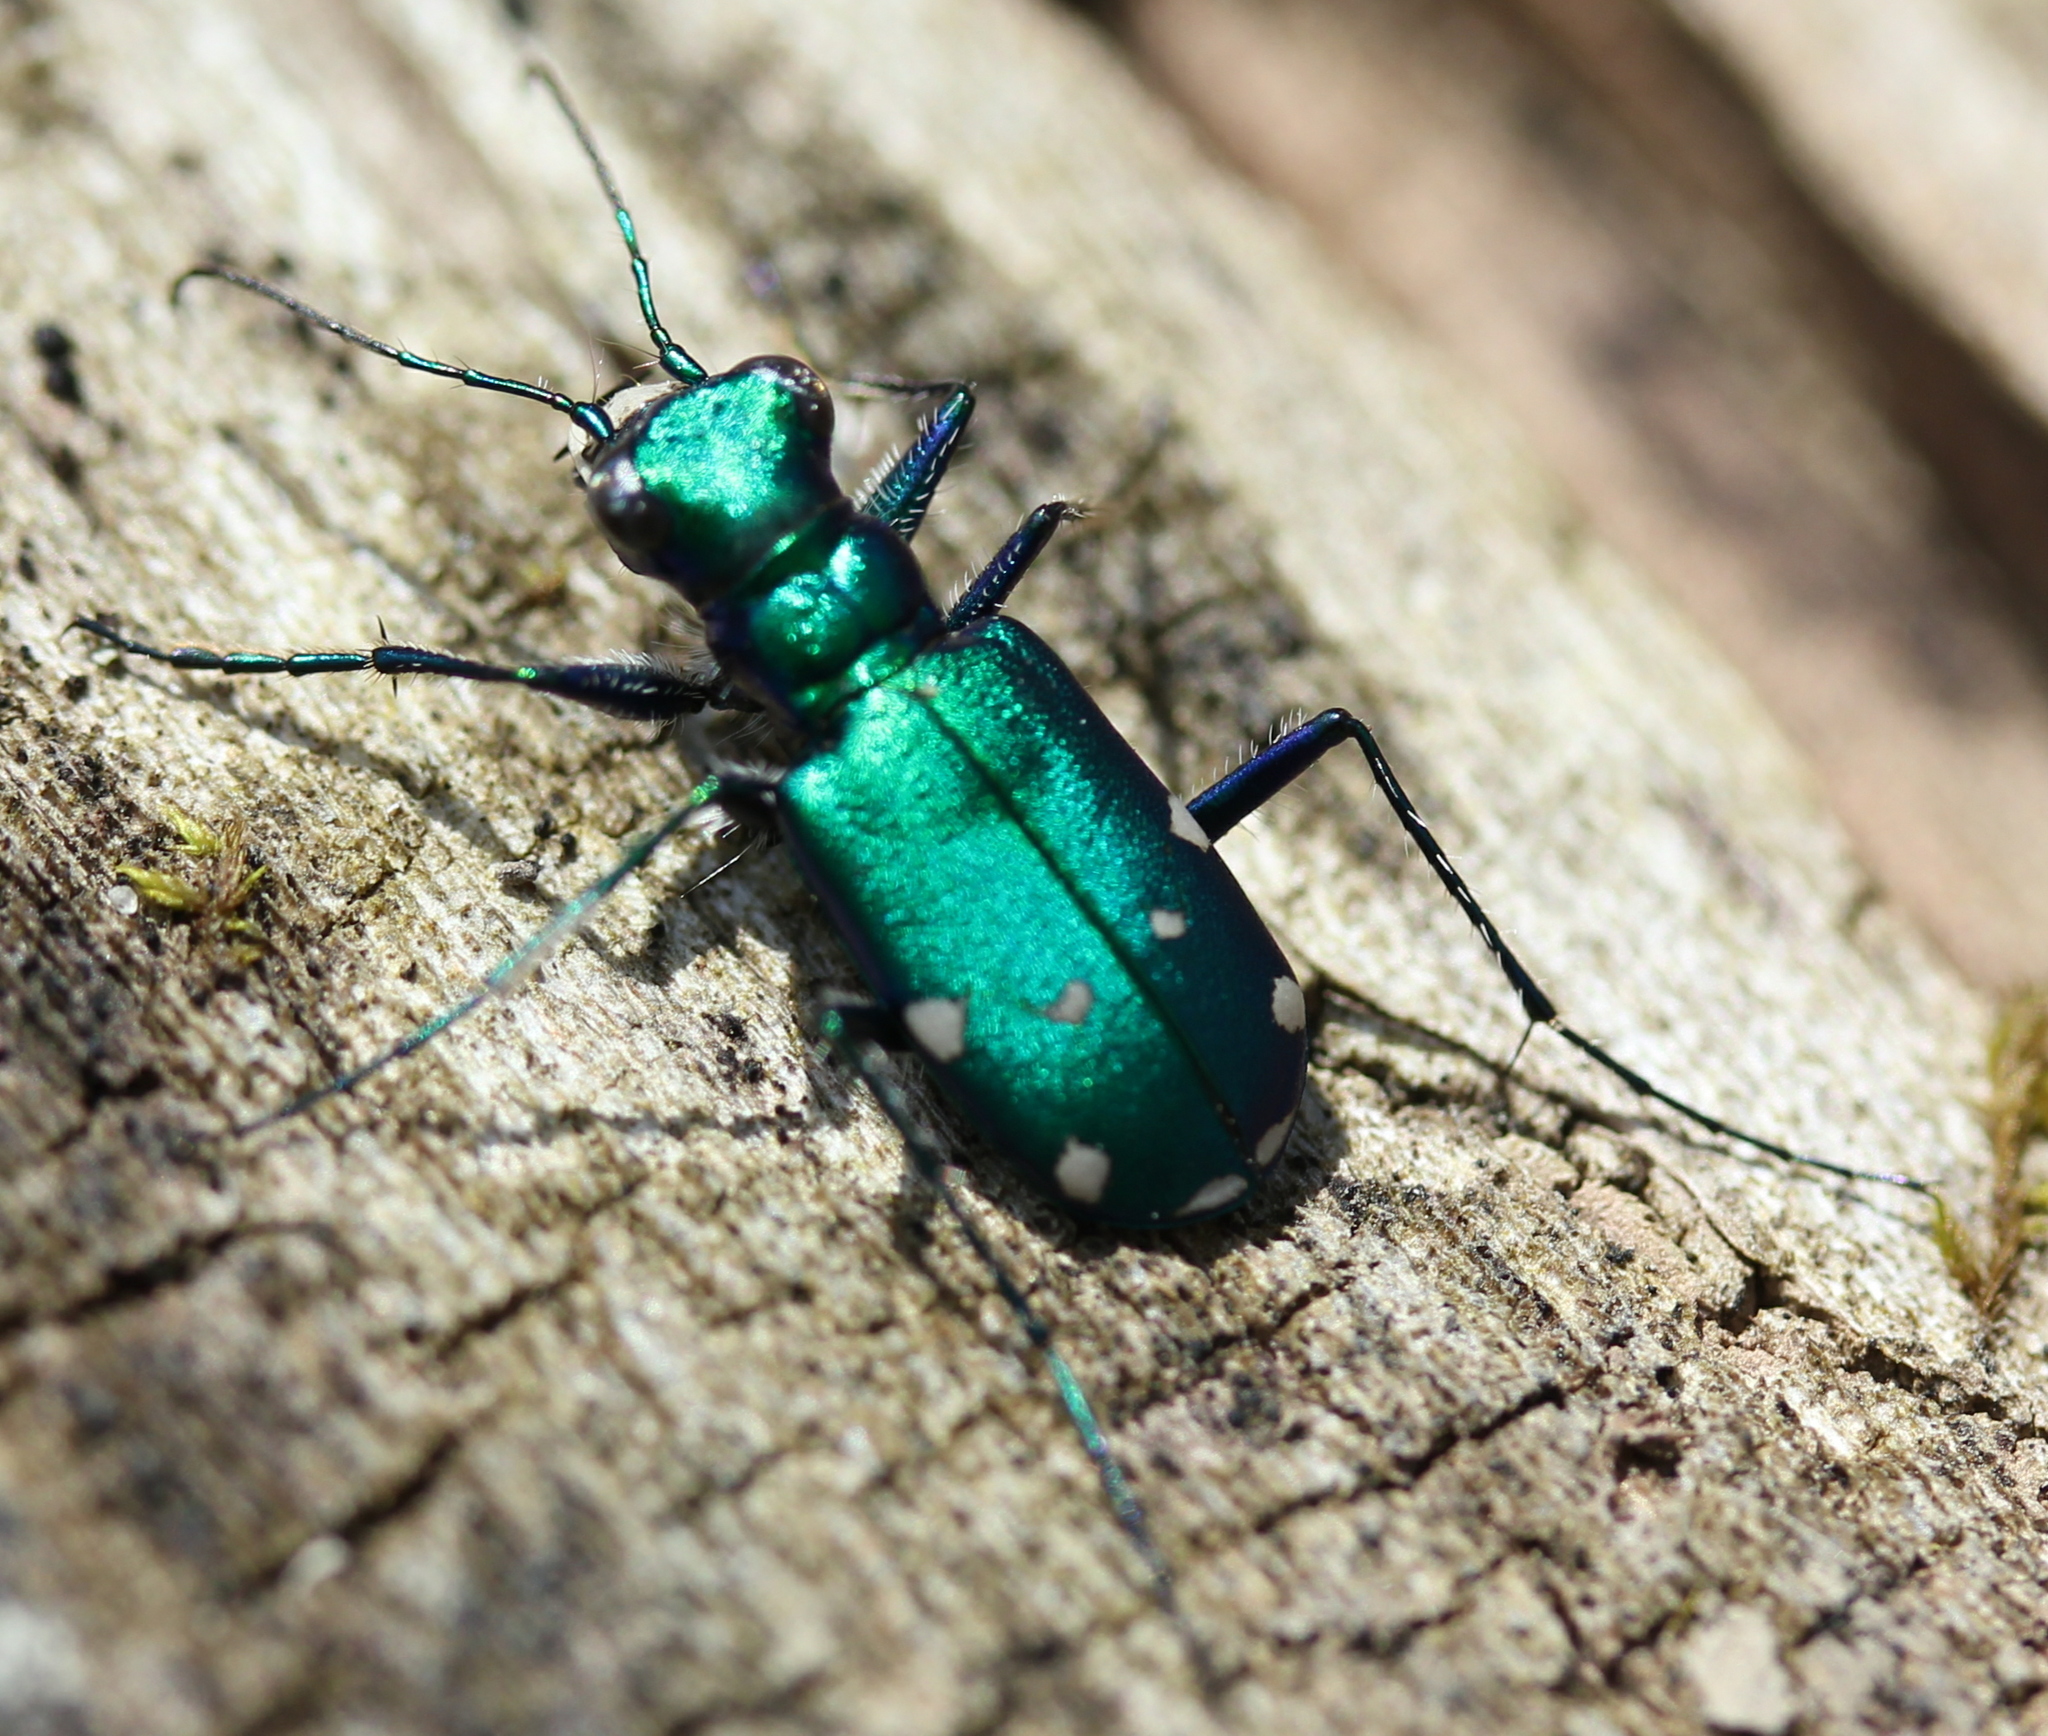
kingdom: Animalia
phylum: Arthropoda
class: Insecta
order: Coleoptera
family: Carabidae
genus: Cicindela
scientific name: Cicindela sexguttata
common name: Six-spotted tiger beetle
